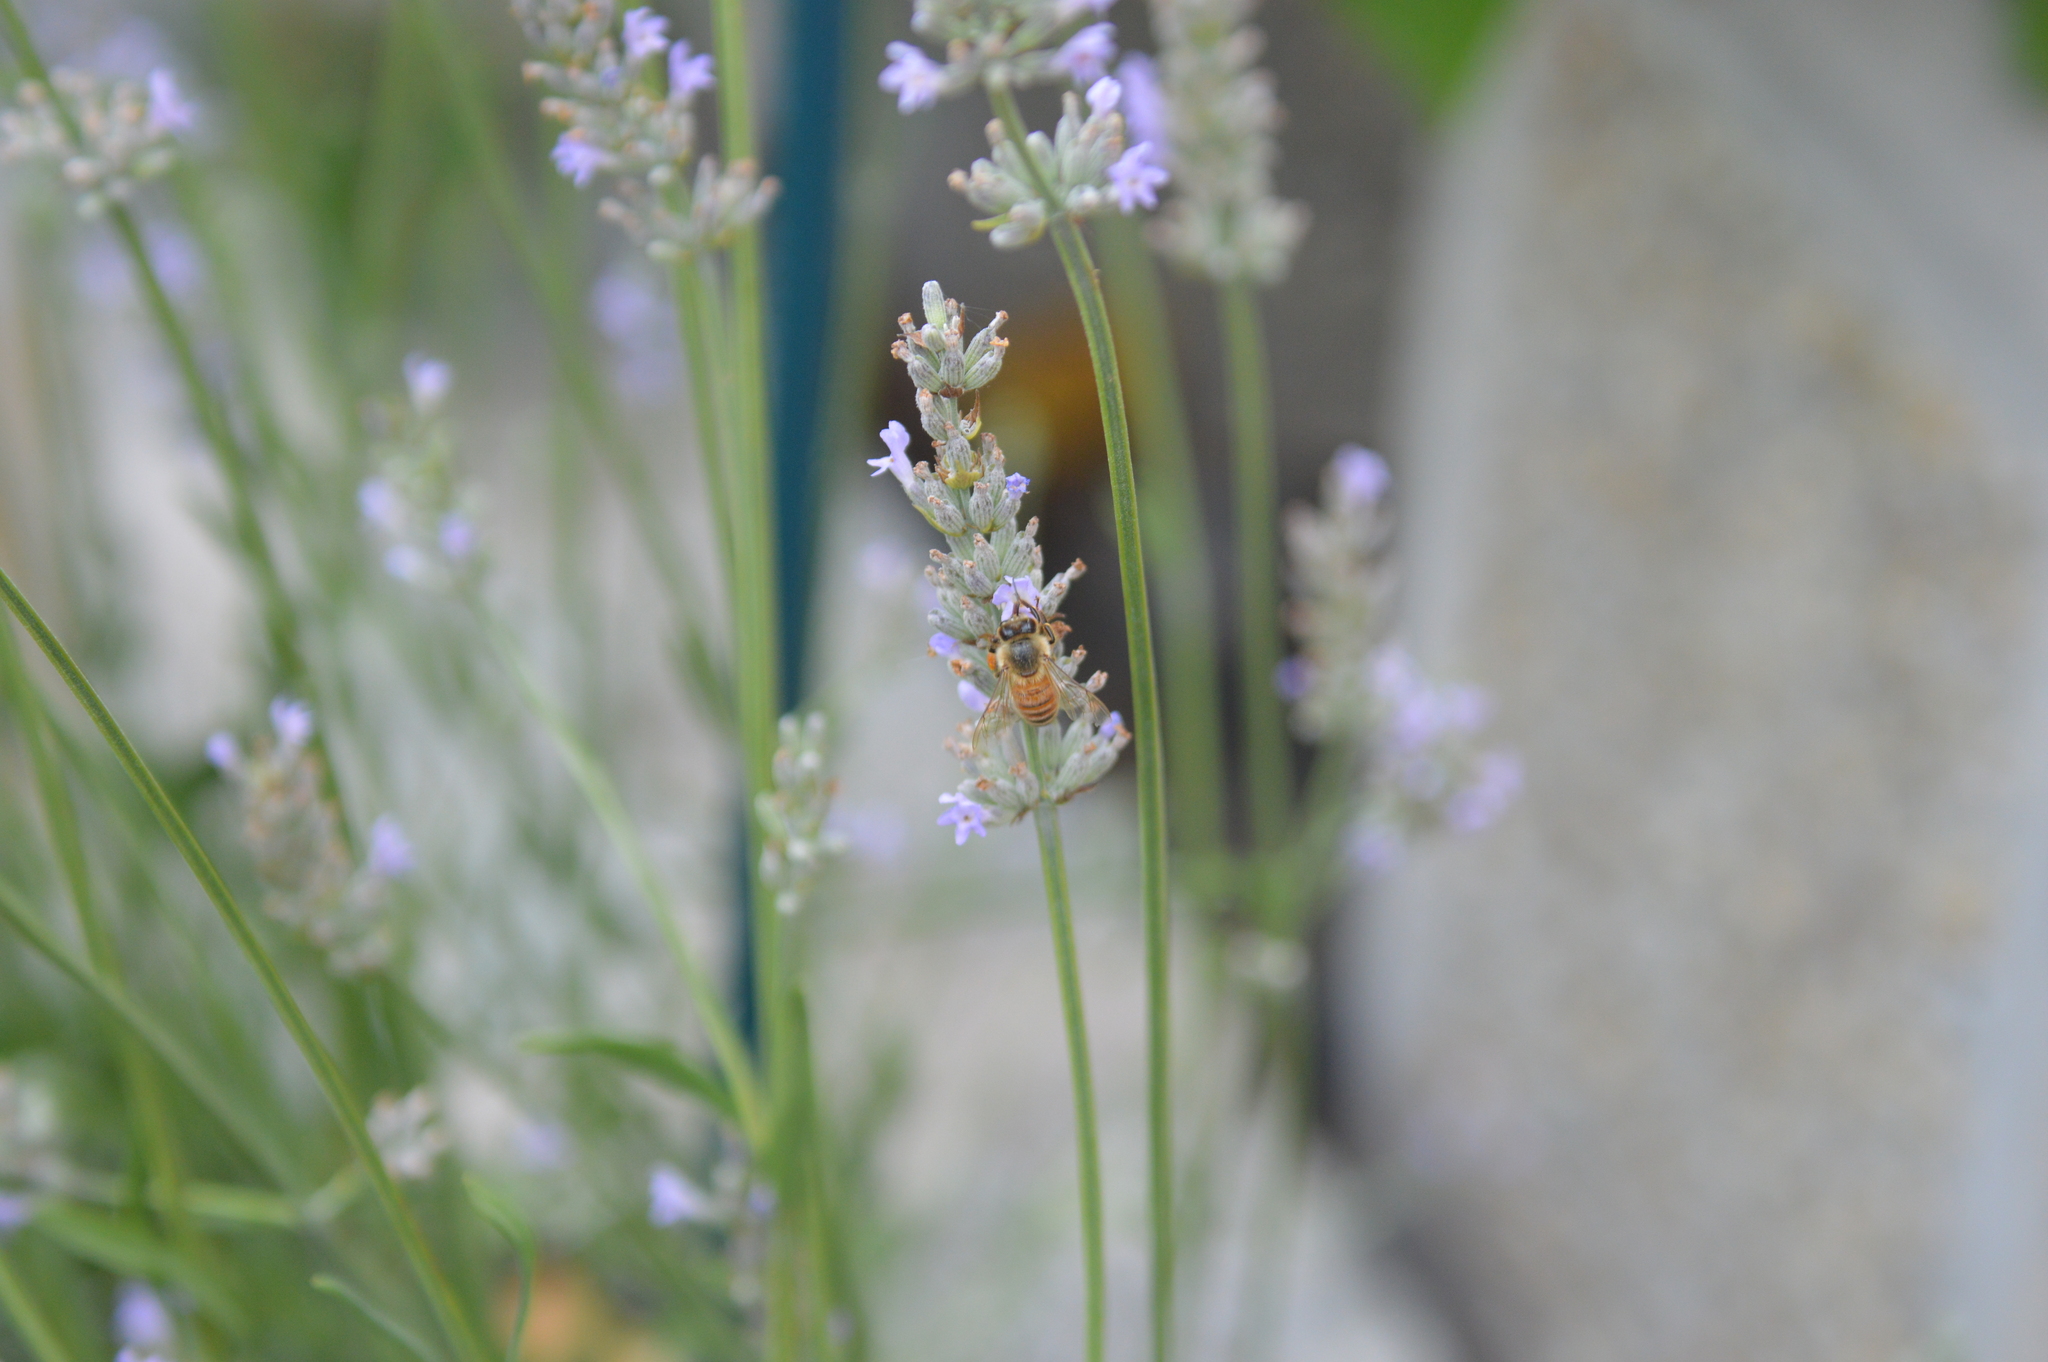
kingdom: Animalia
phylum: Arthropoda
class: Insecta
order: Hymenoptera
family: Apidae
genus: Apis
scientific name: Apis mellifera
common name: Honey bee
